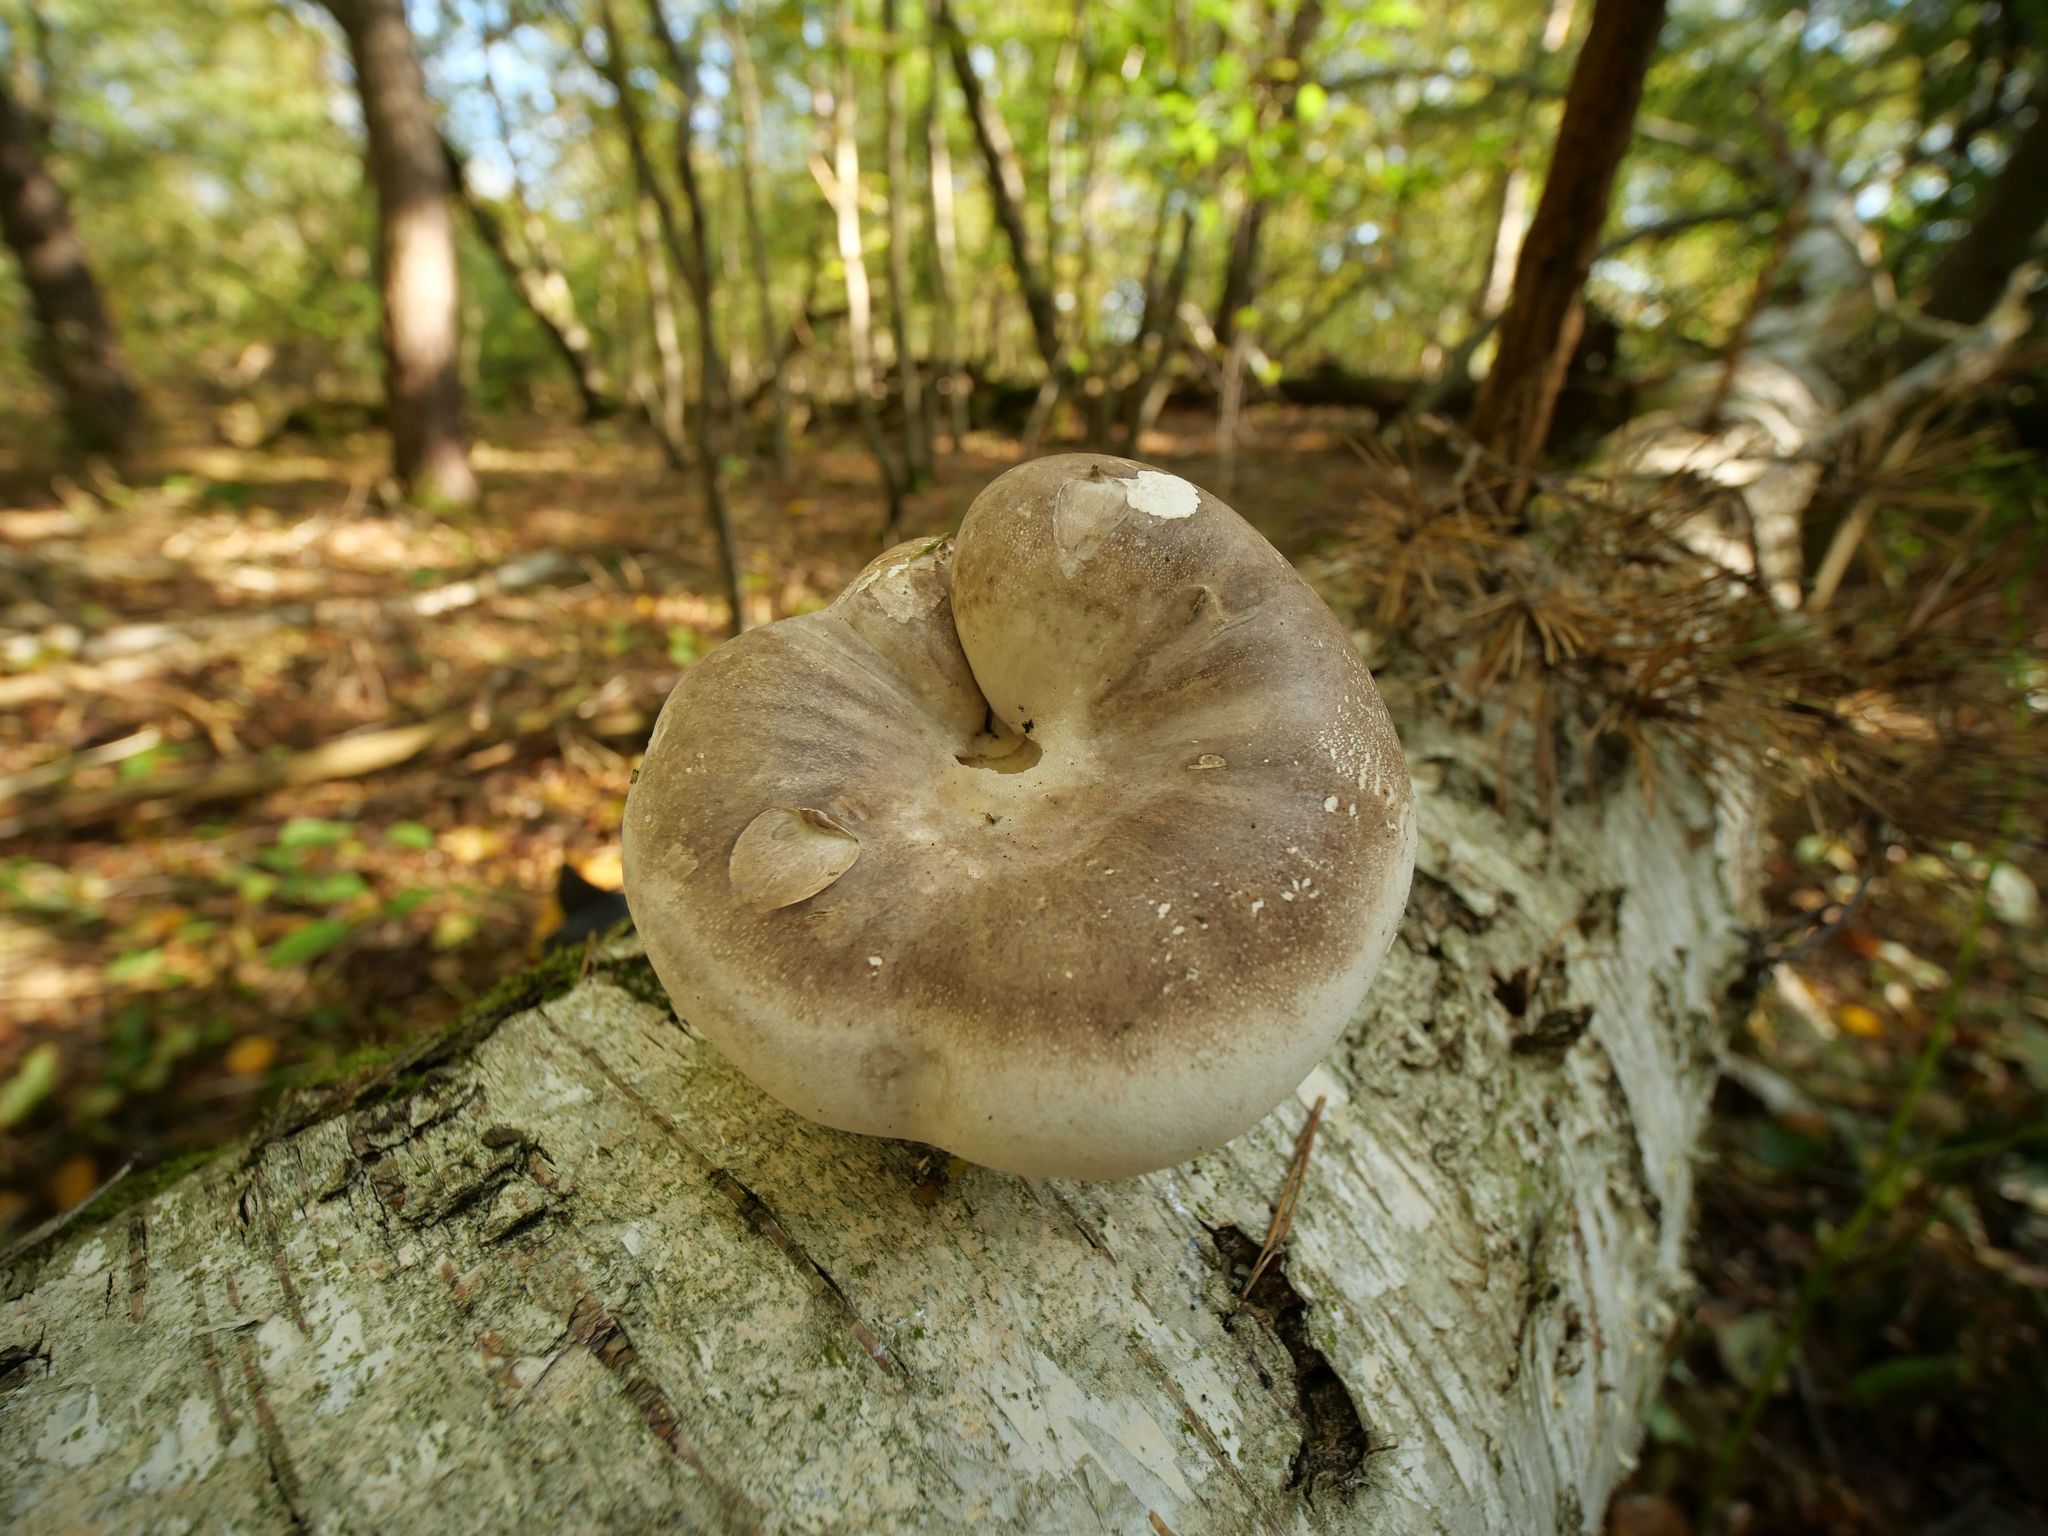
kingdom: Fungi
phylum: Basidiomycota
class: Agaricomycetes
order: Polyporales
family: Fomitopsidaceae
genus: Fomitopsis
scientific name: Fomitopsis betulina
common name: Birch polypore
